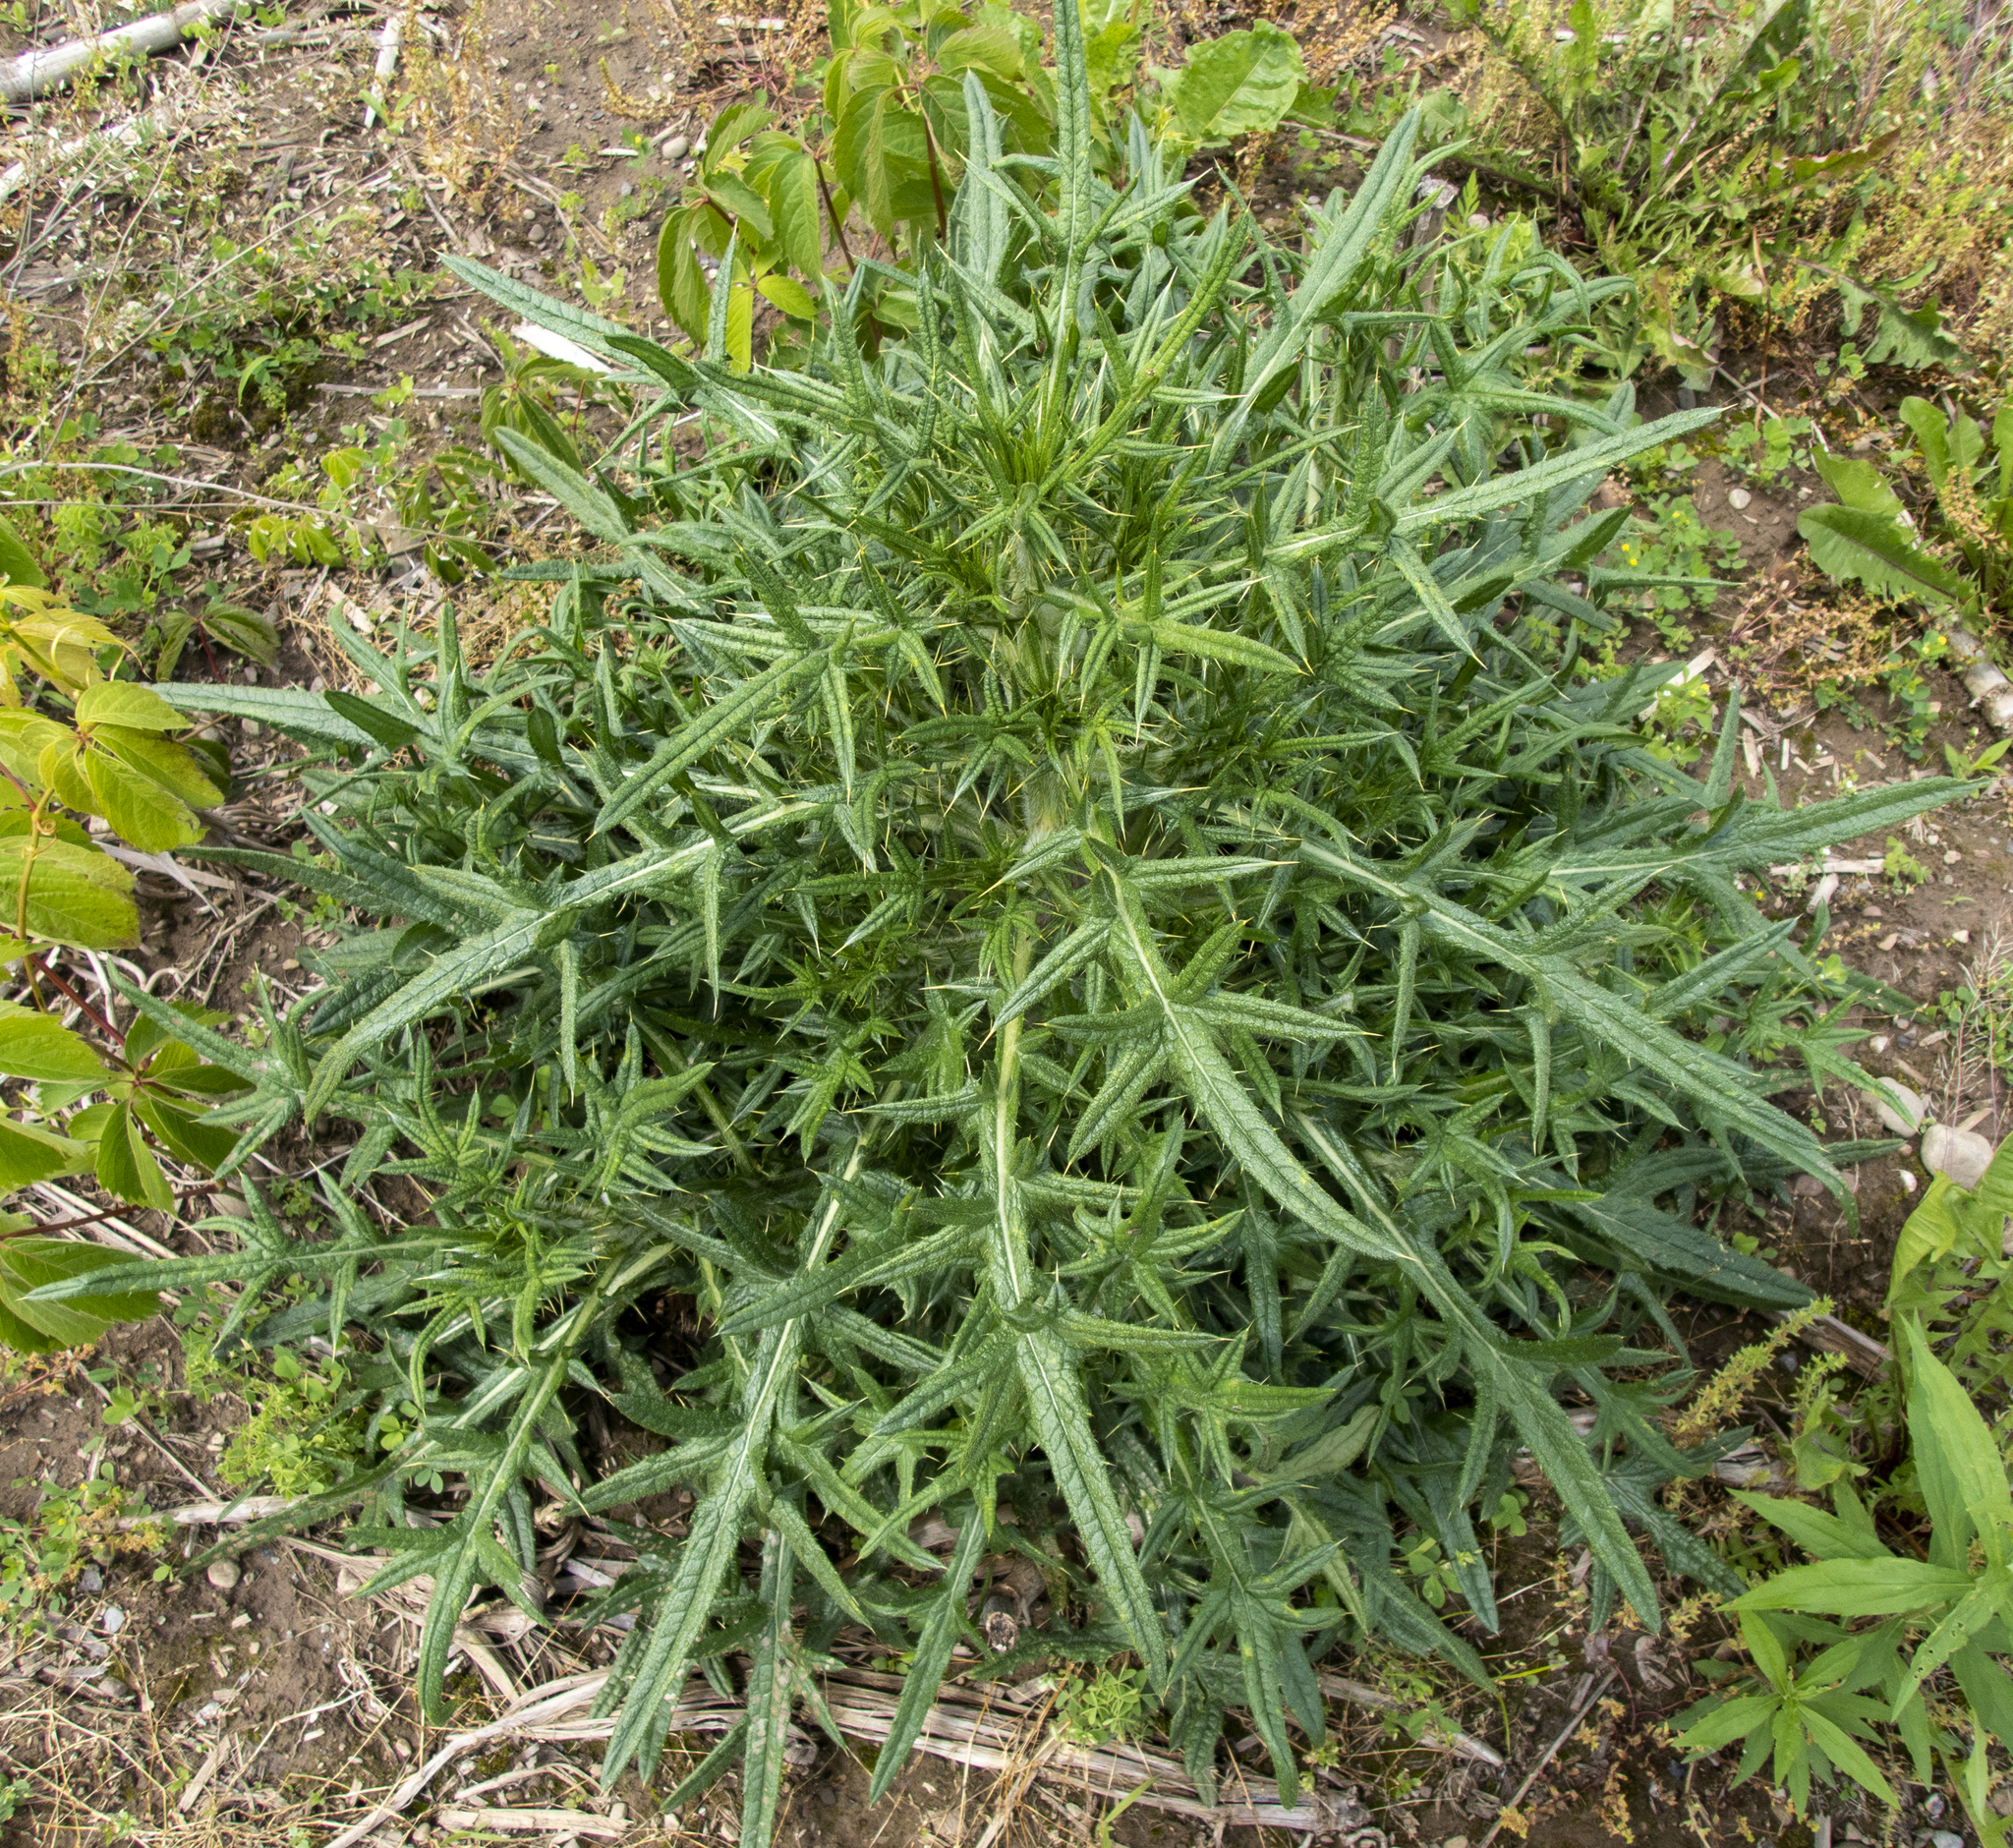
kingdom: Plantae
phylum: Tracheophyta
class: Magnoliopsida
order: Asterales
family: Asteraceae
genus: Cirsium
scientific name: Cirsium vulgare
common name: Bull thistle
